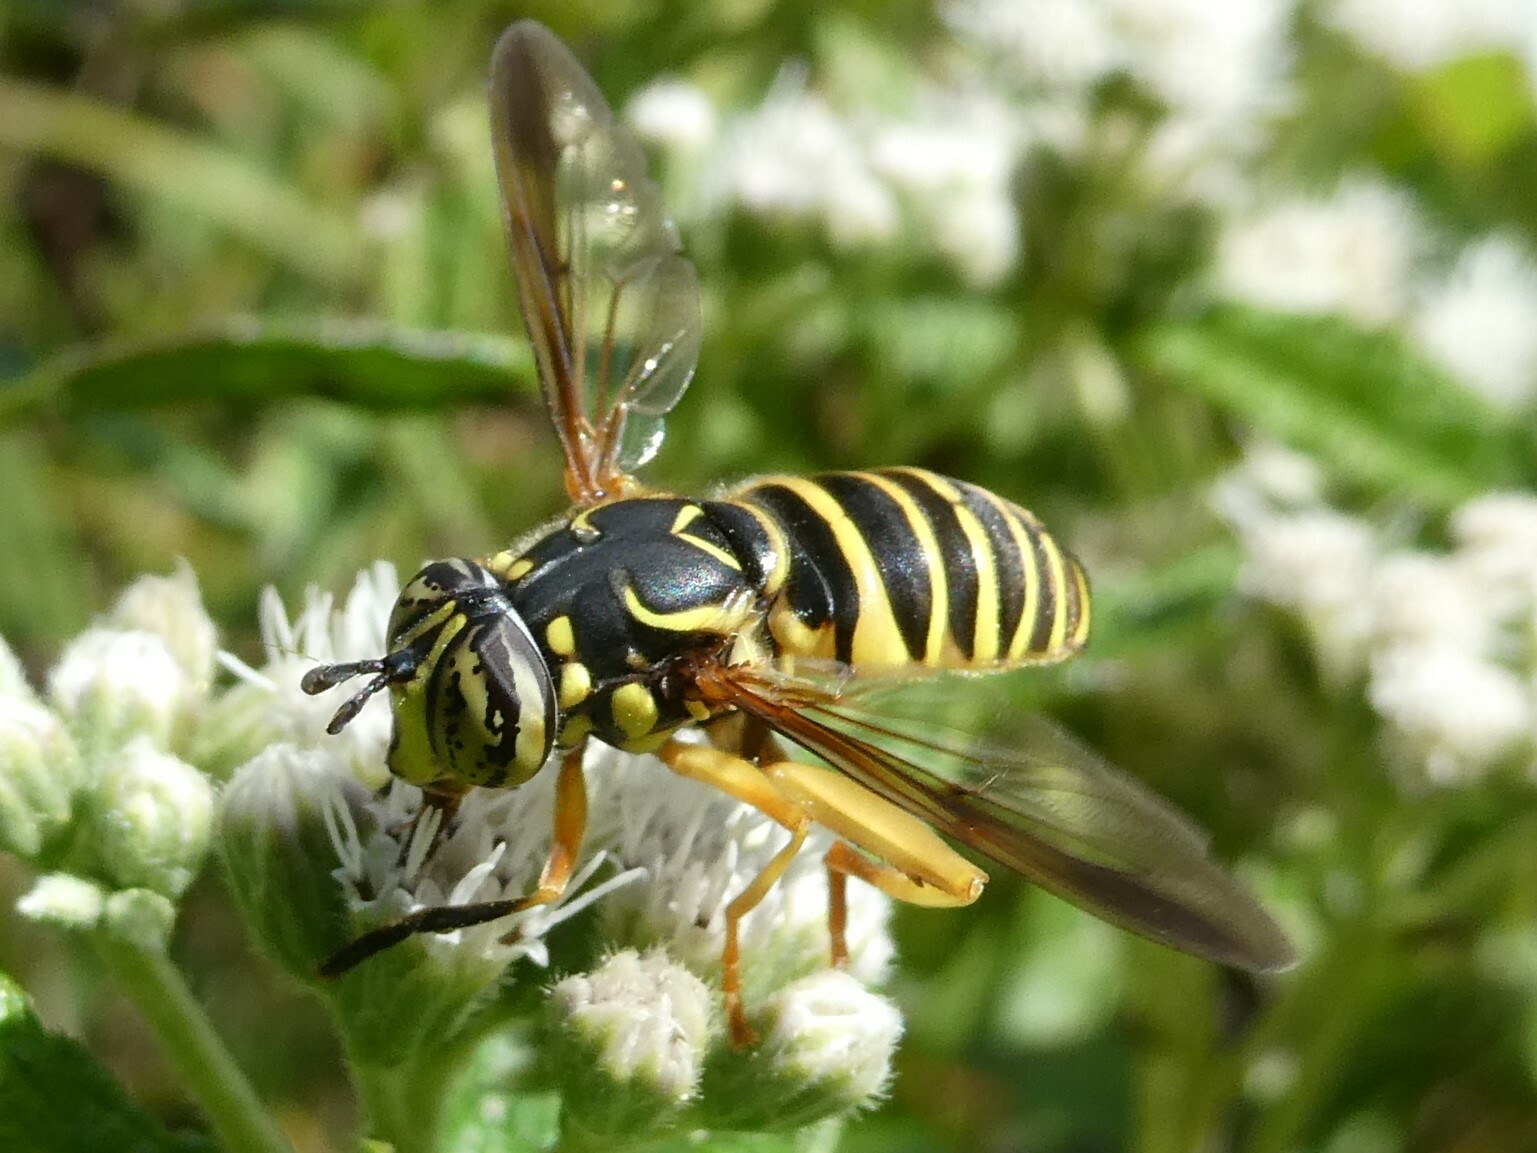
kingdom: Animalia
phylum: Arthropoda
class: Insecta
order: Diptera
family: Syrphidae
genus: Spilomyia
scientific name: Spilomyia longicornis
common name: Eastern hornet fly
